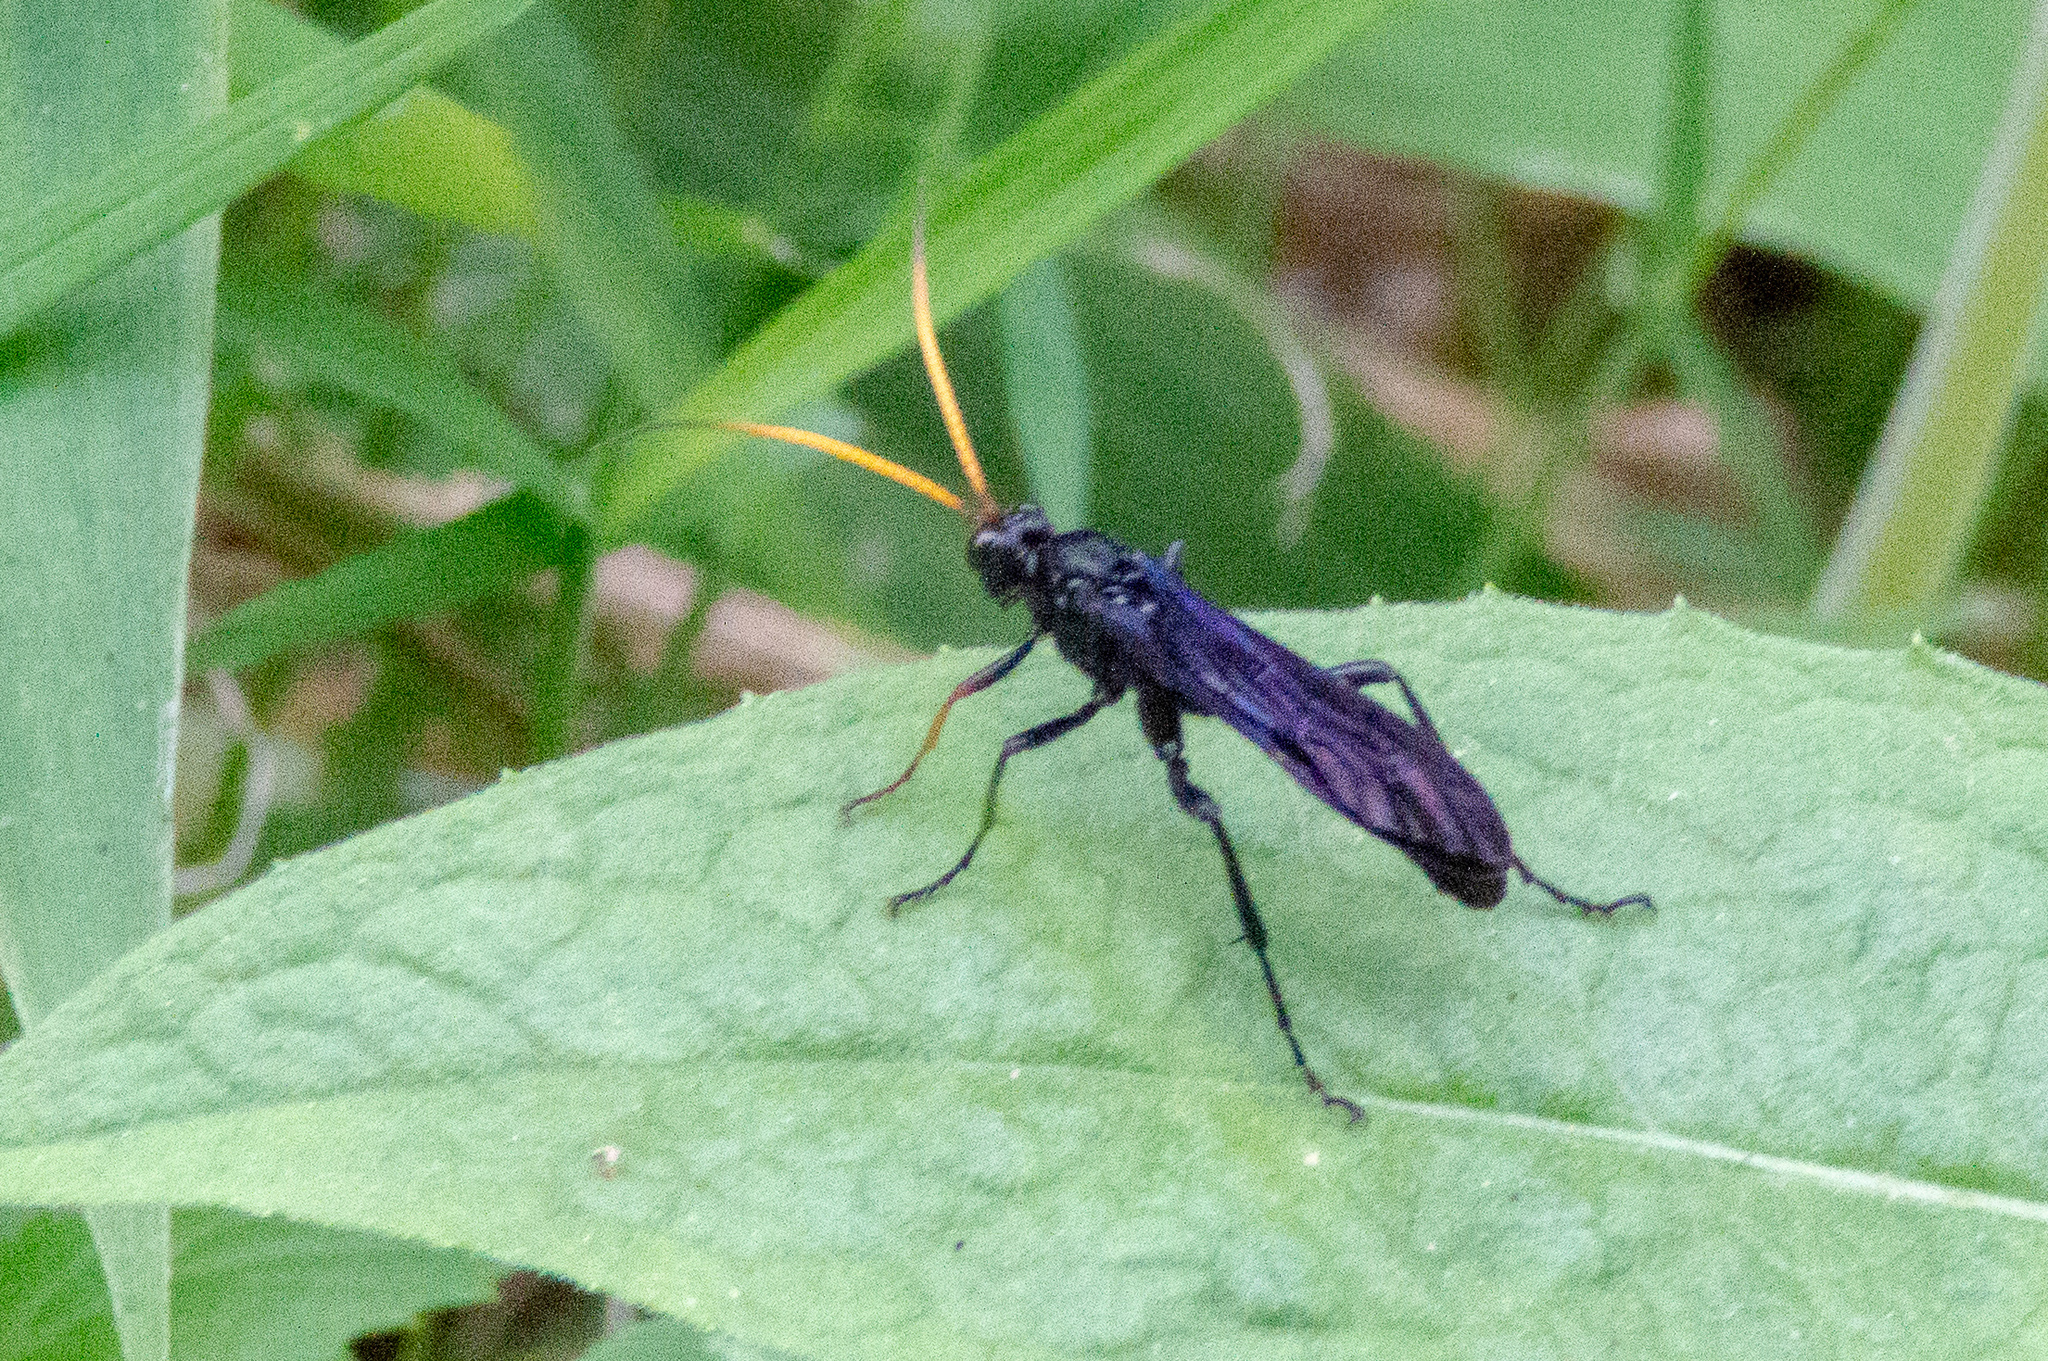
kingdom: Animalia
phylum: Arthropoda
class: Insecta
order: Hymenoptera
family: Ichneumonidae
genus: Gnamptopelta
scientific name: Gnamptopelta obsidianator
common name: Bent-shielded besieger wasp
